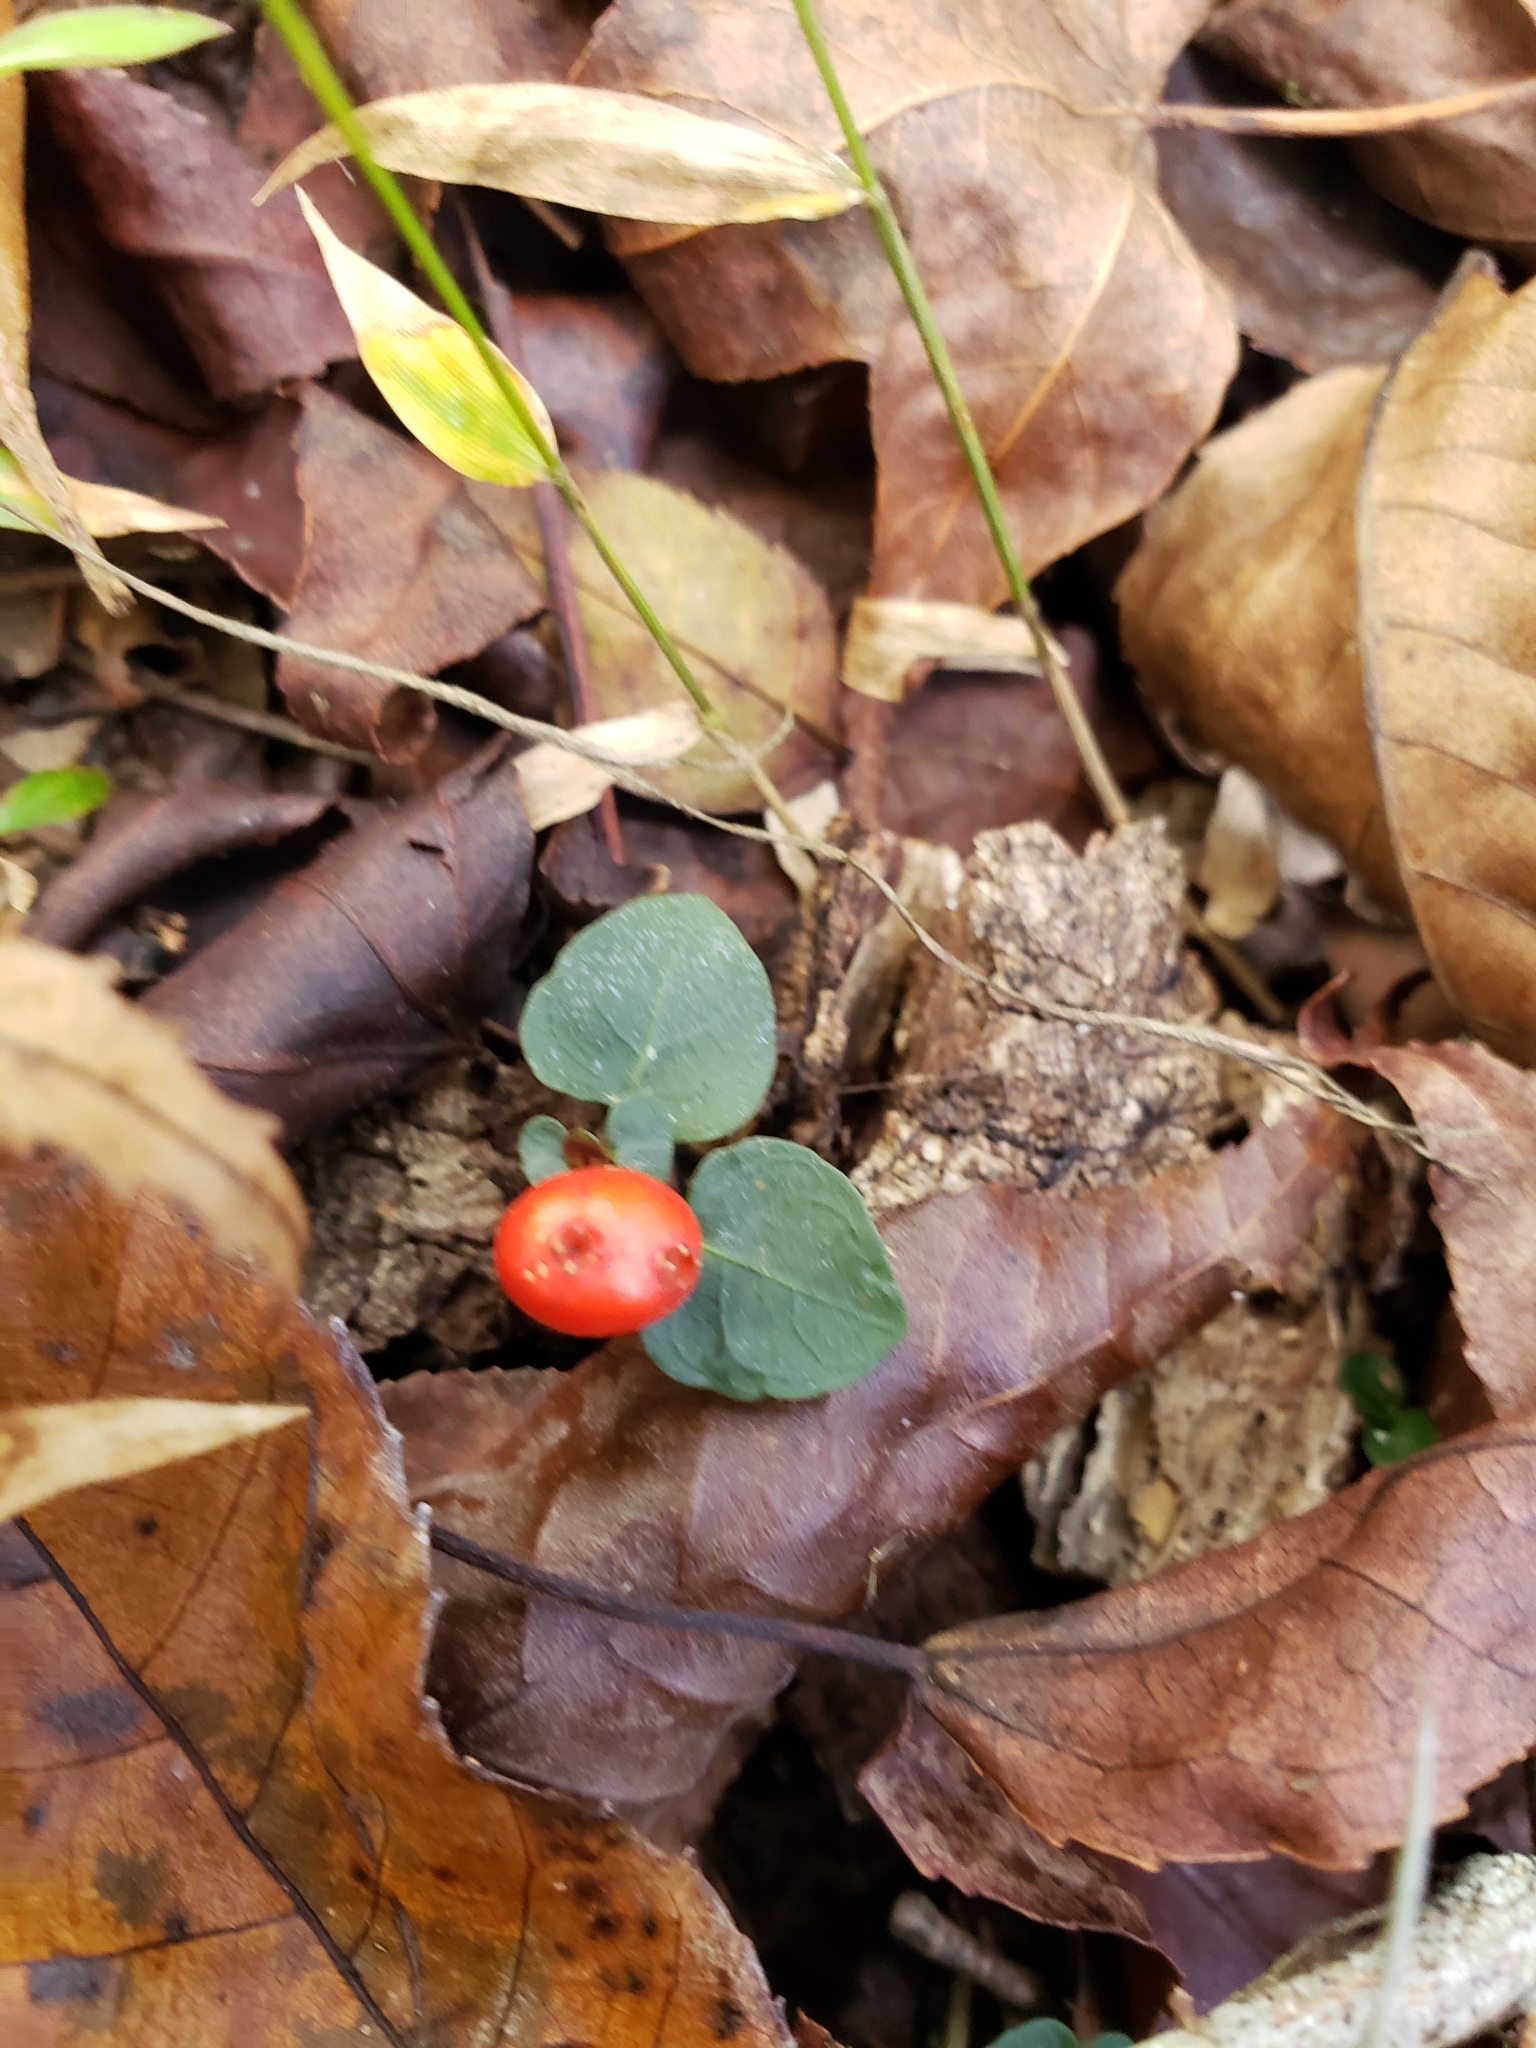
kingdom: Plantae
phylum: Tracheophyta
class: Magnoliopsida
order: Gentianales
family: Rubiaceae
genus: Mitchella
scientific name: Mitchella repens
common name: Partridge-berry
